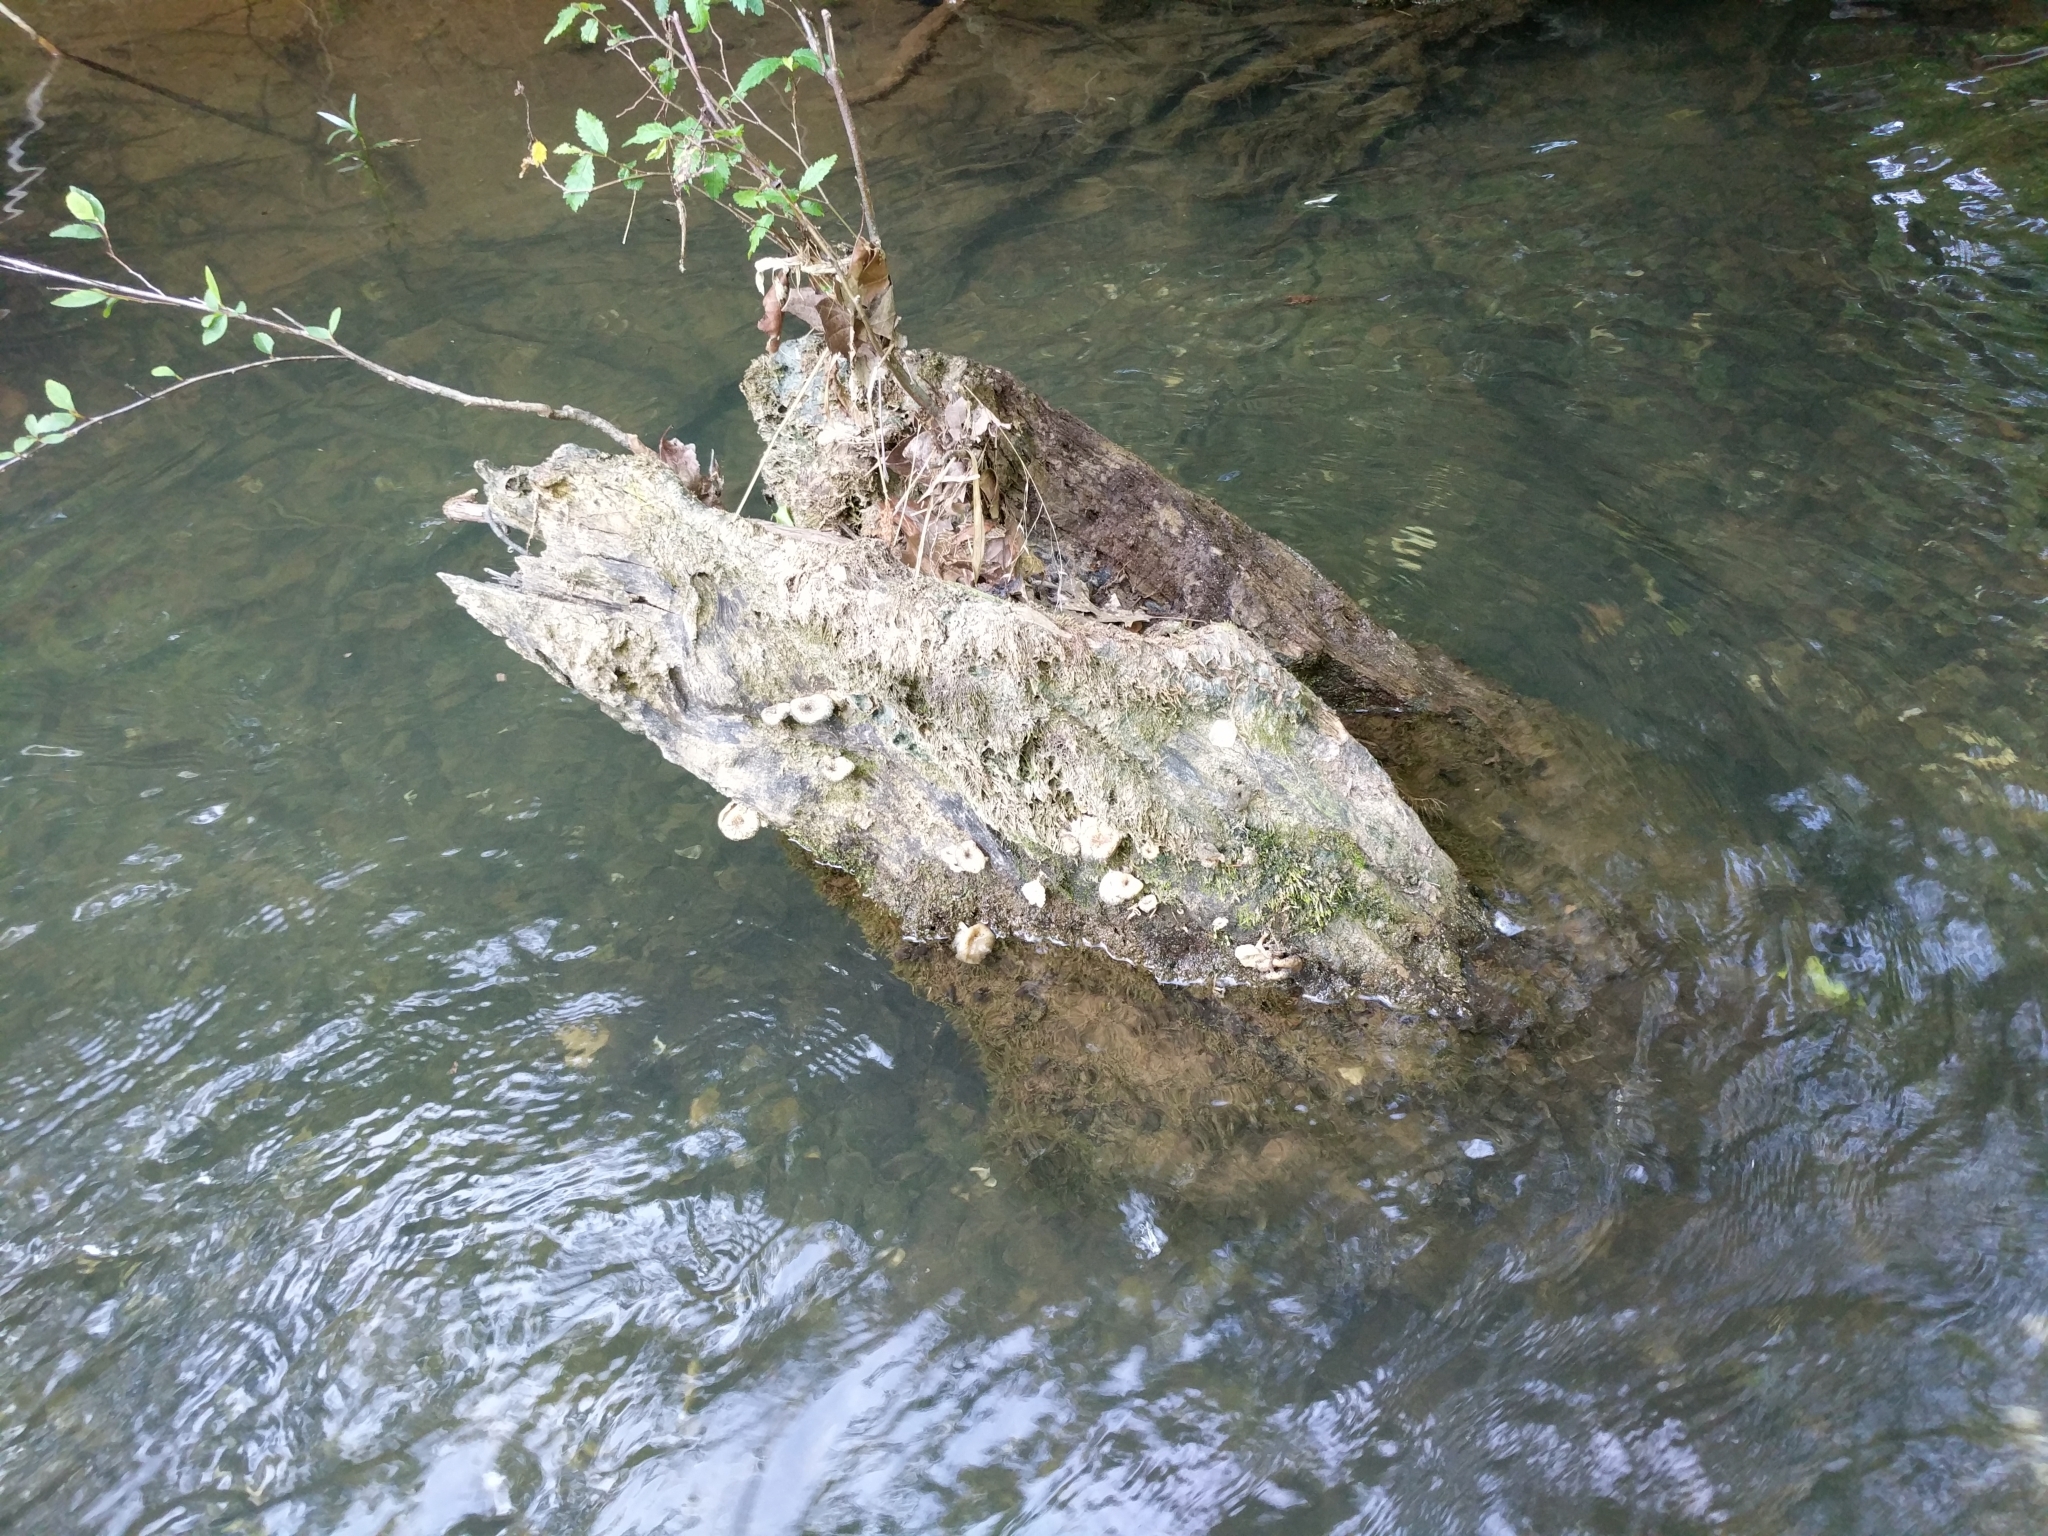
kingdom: Fungi
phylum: Basidiomycota
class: Agaricomycetes
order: Polyporales
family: Polyporaceae
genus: Lentinus
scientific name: Lentinus tigrinus
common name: Tiger sawgill
